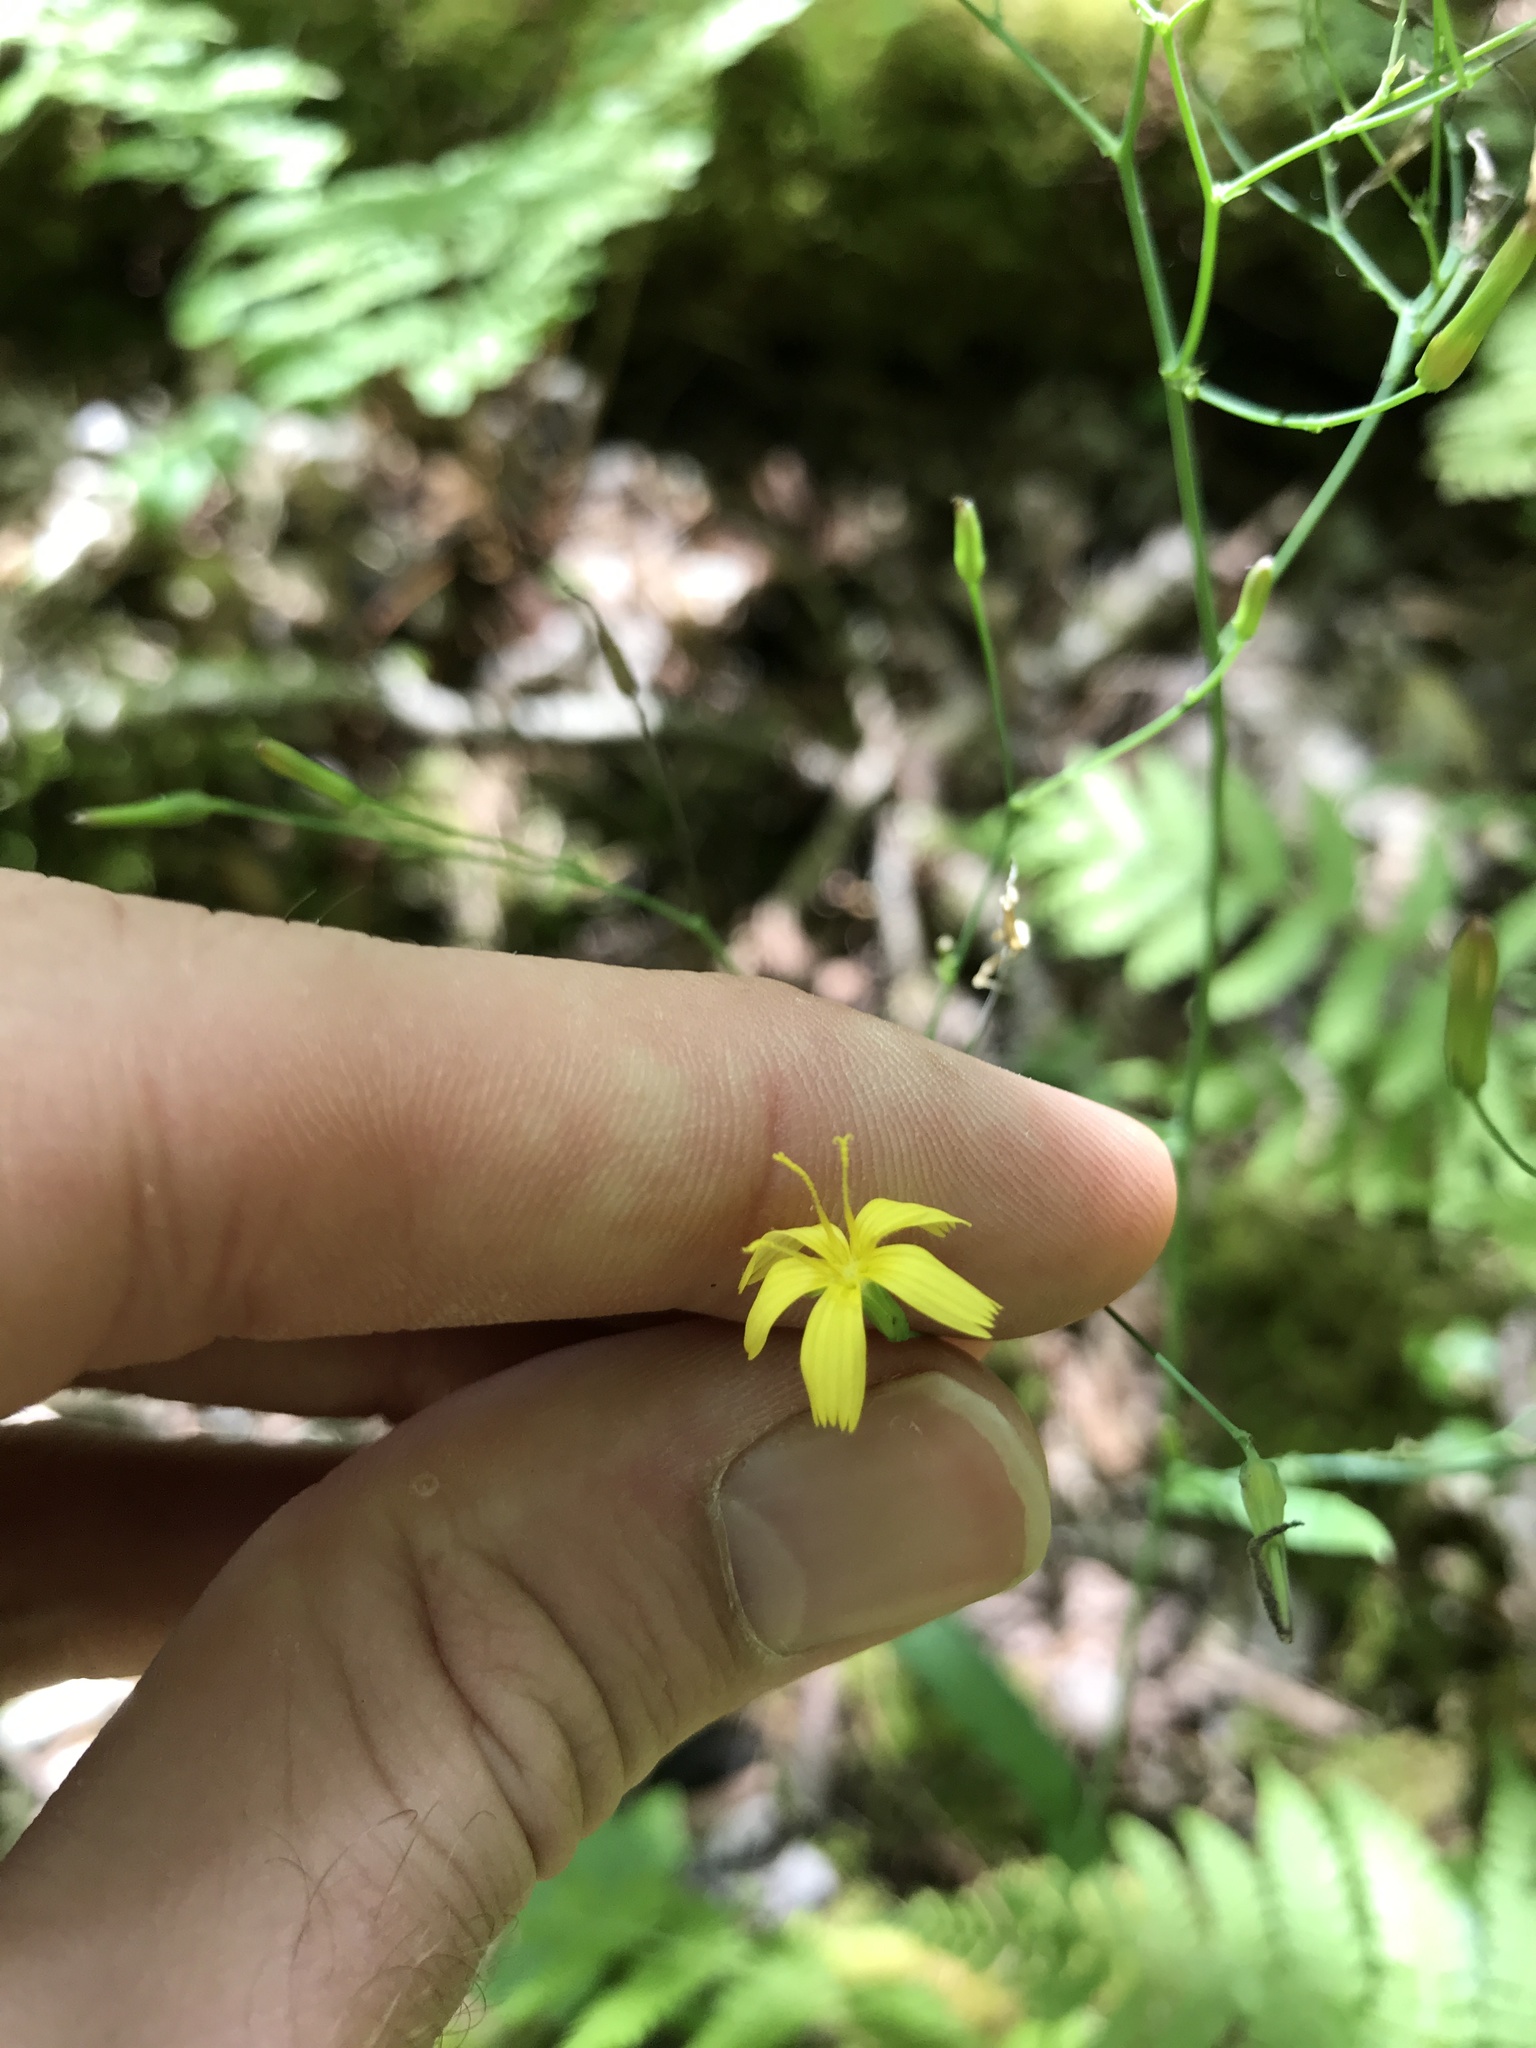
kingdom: Plantae
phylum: Tracheophyta
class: Magnoliopsida
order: Asterales
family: Asteraceae
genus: Mycelis
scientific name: Mycelis muralis
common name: Wall lettuce
